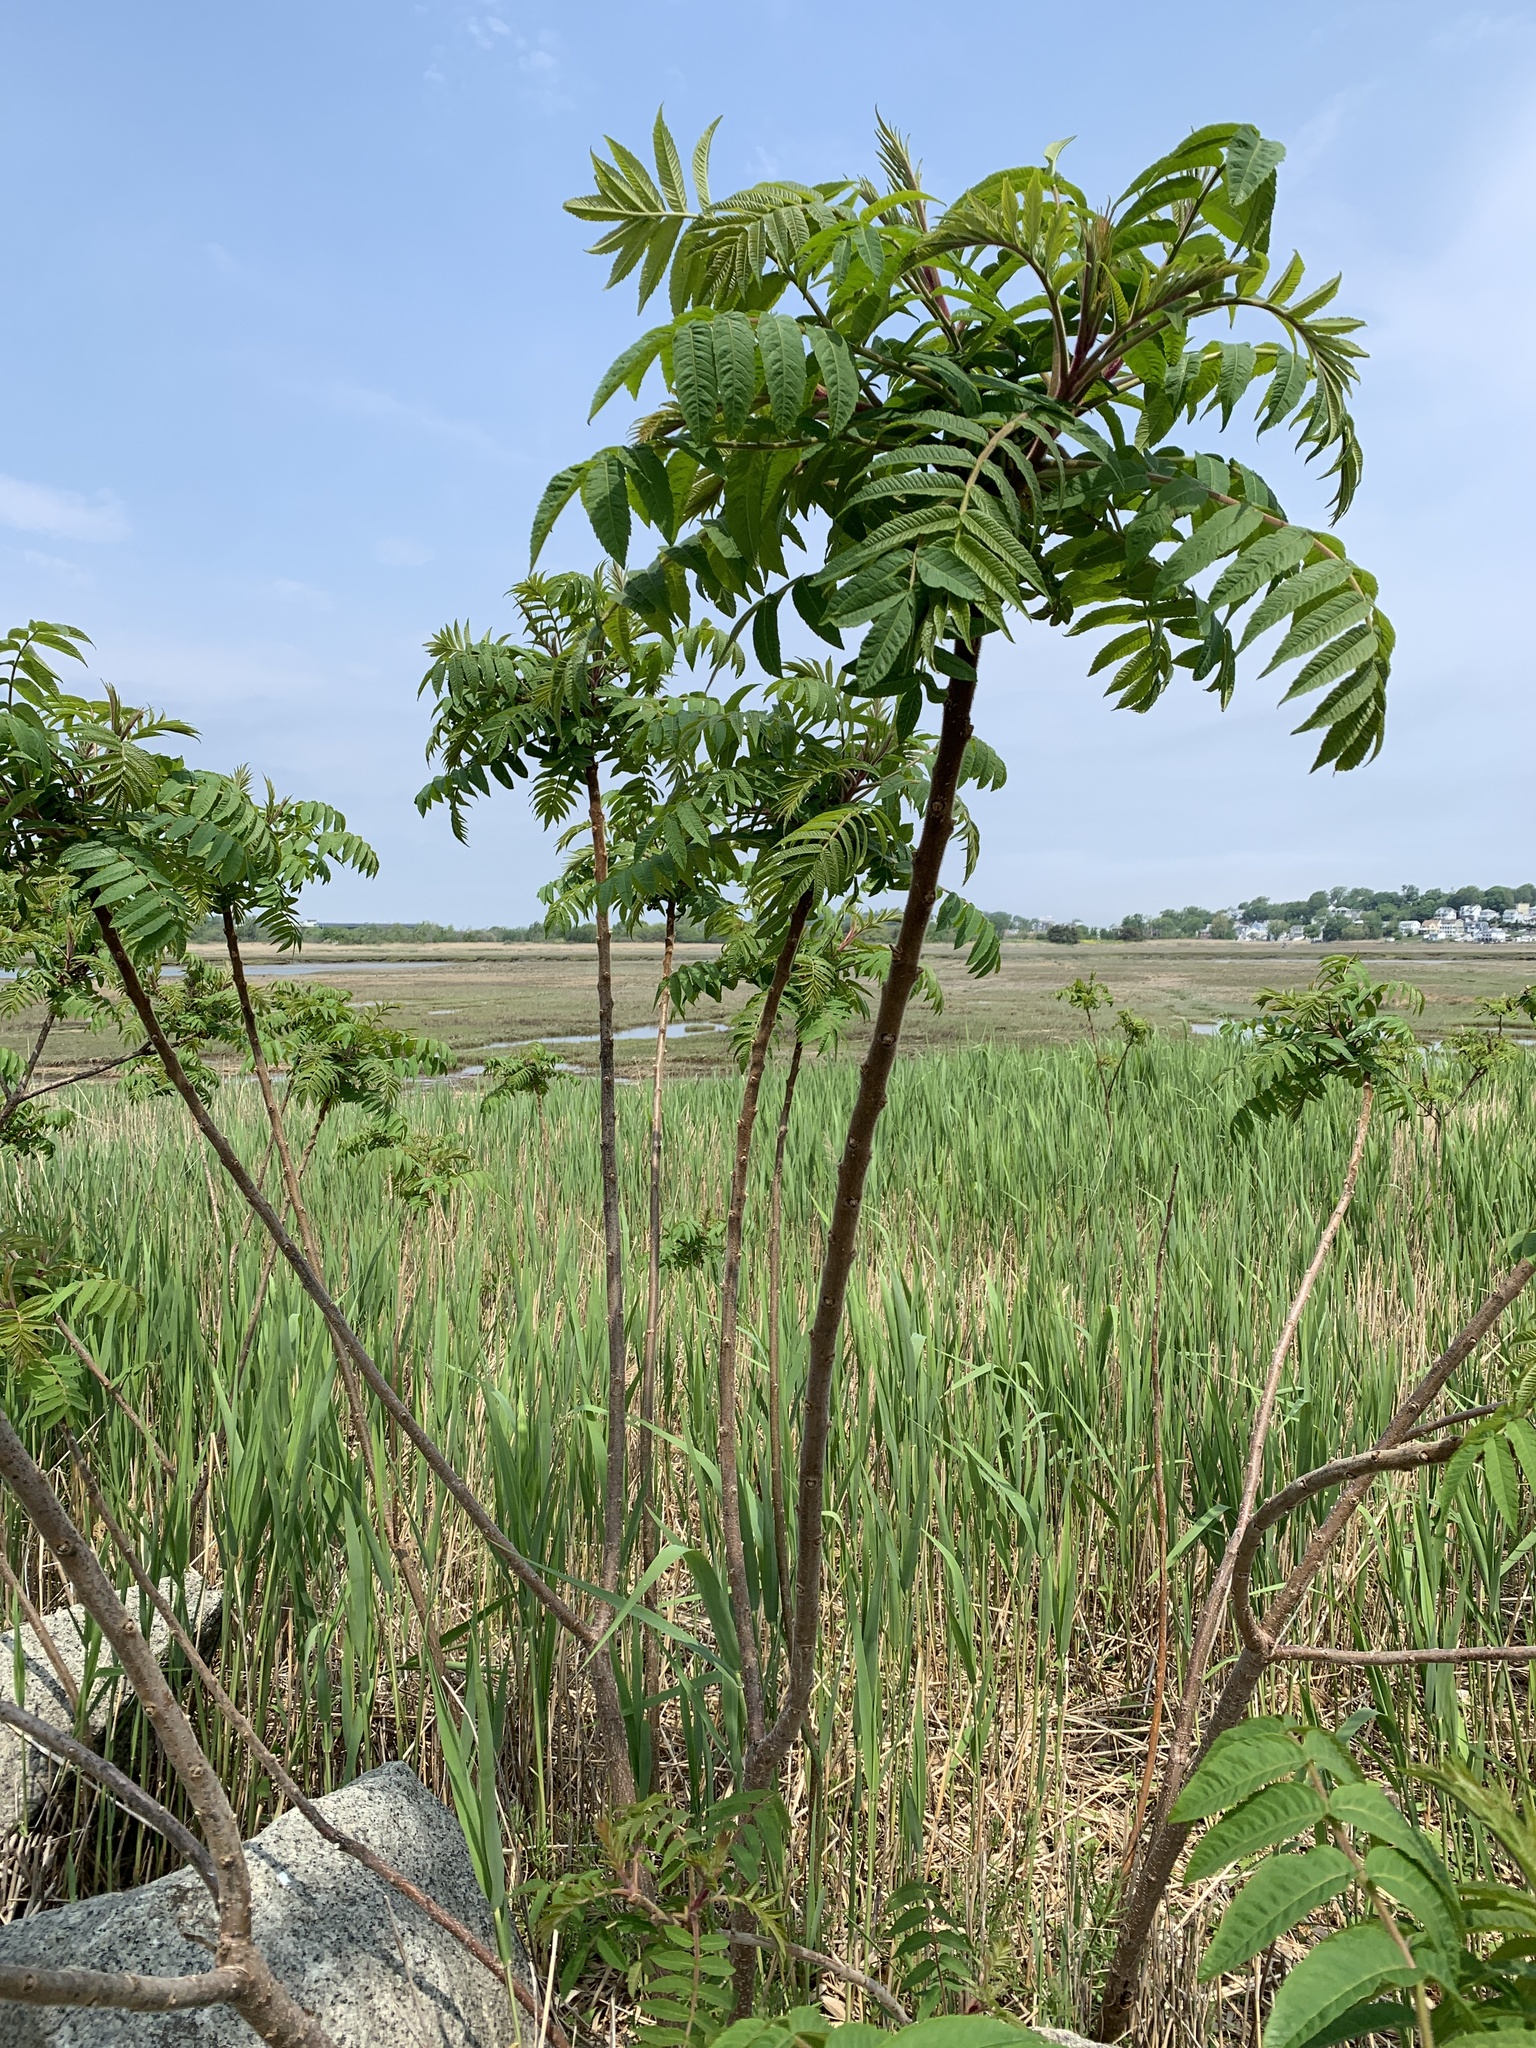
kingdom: Plantae
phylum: Tracheophyta
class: Magnoliopsida
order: Sapindales
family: Anacardiaceae
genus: Rhus
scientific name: Rhus typhina
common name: Staghorn sumac
